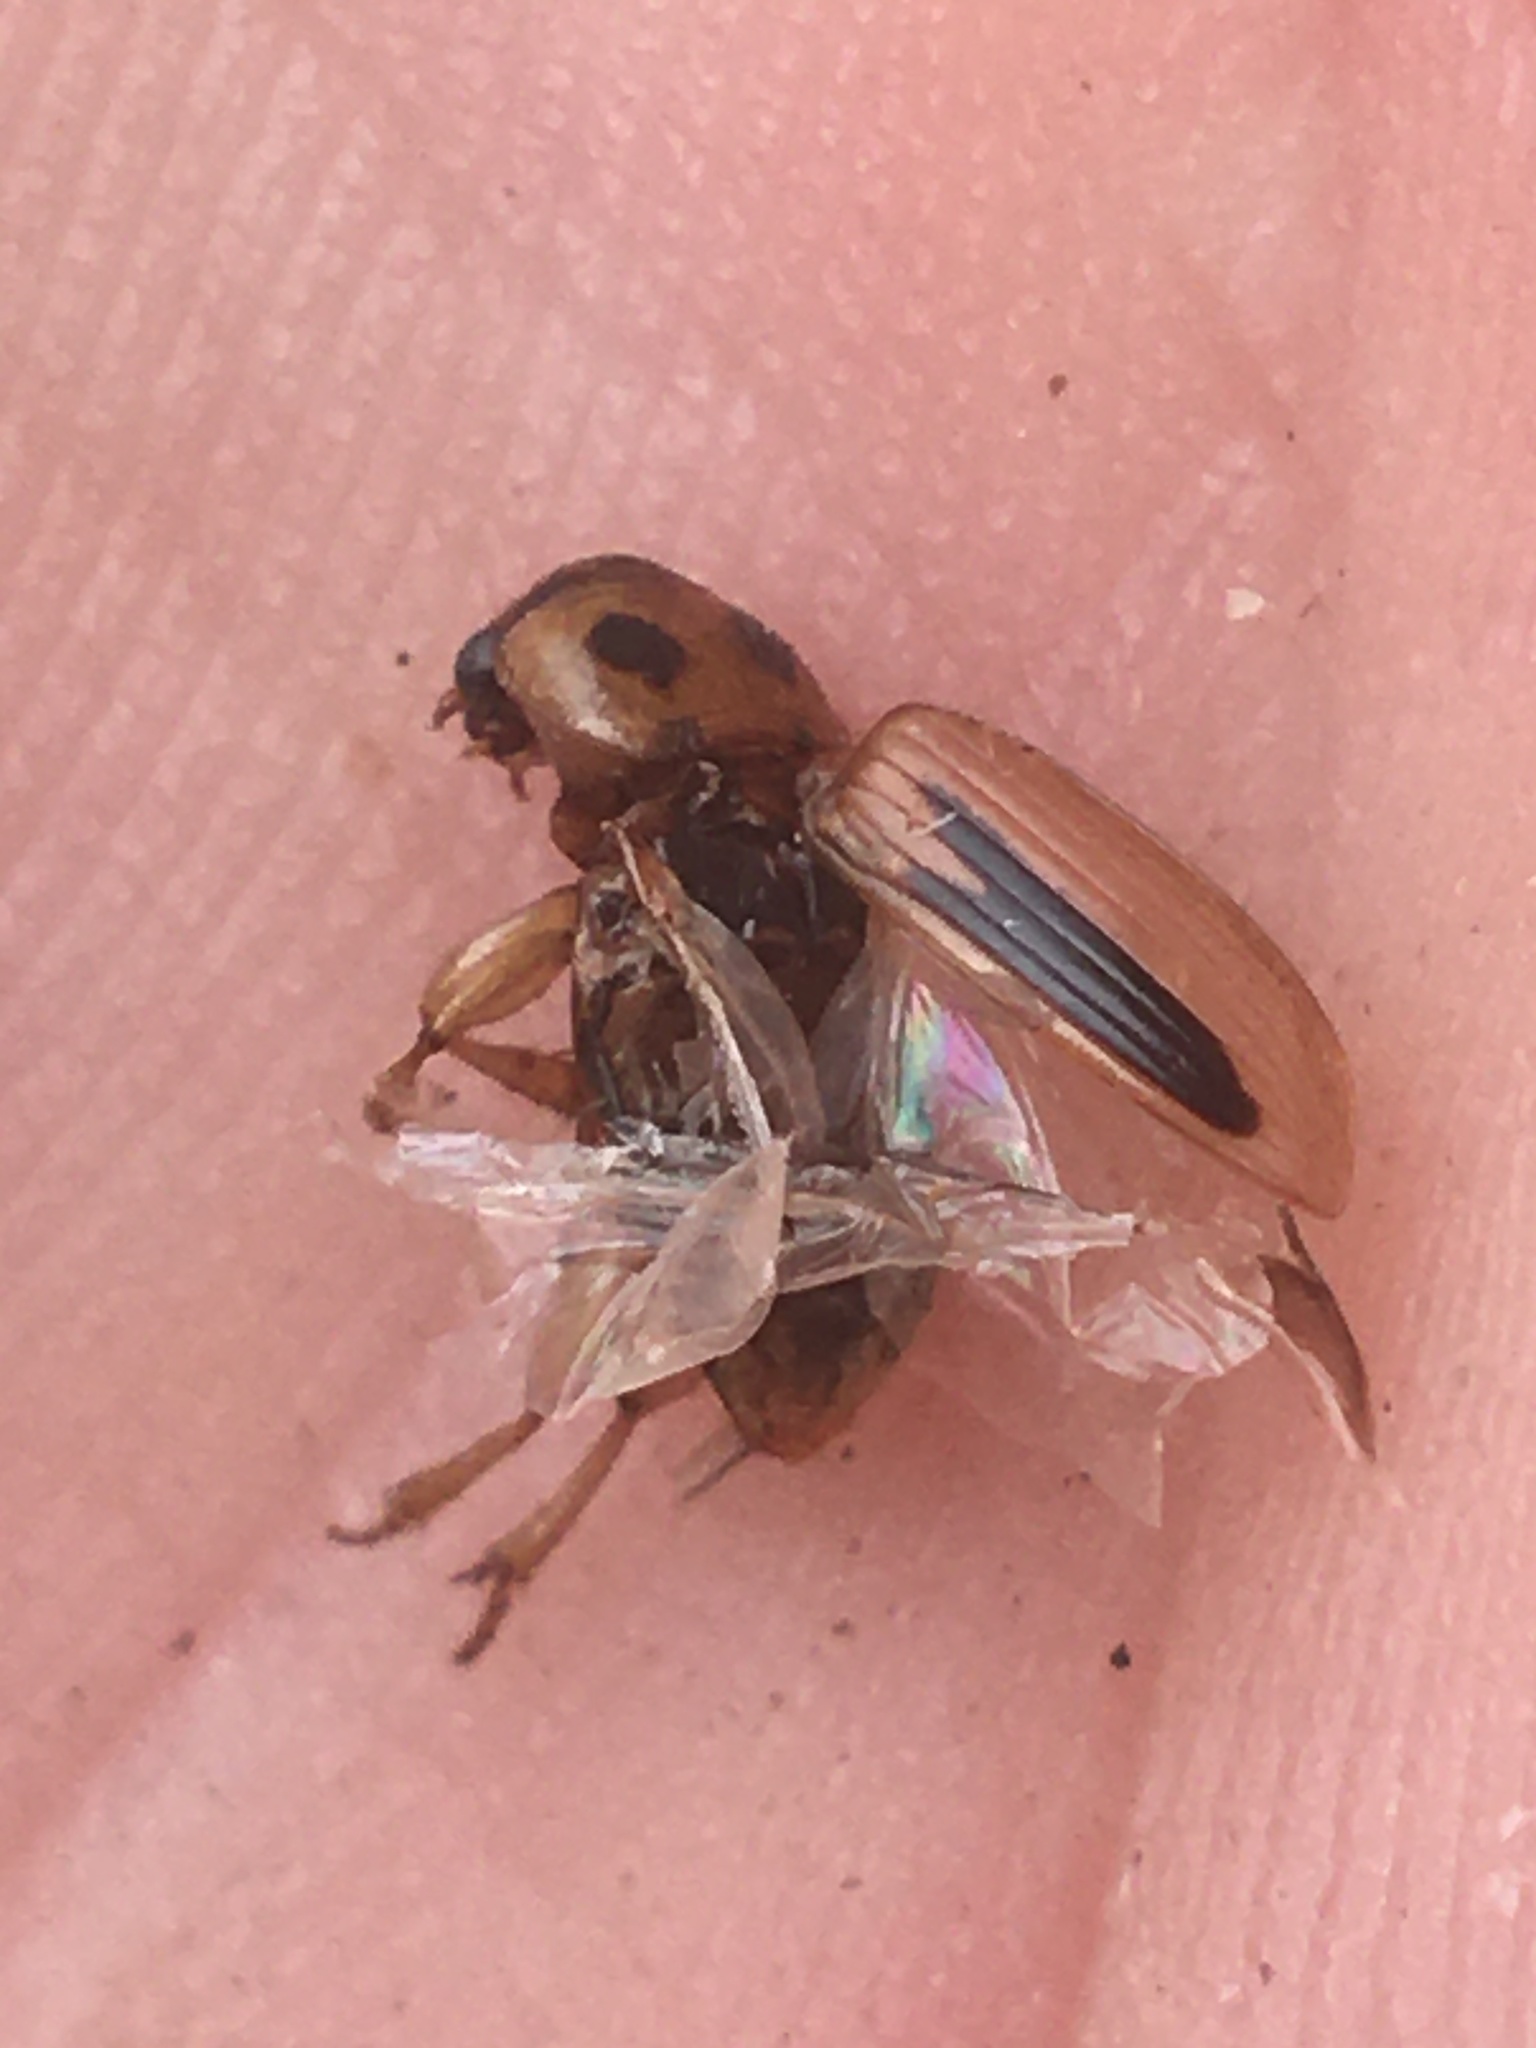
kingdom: Animalia
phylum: Arthropoda
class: Insecta
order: Coleoptera
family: Carabidae
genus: Stenolophus
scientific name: Stenolophus lineola
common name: Lined stenolophus
